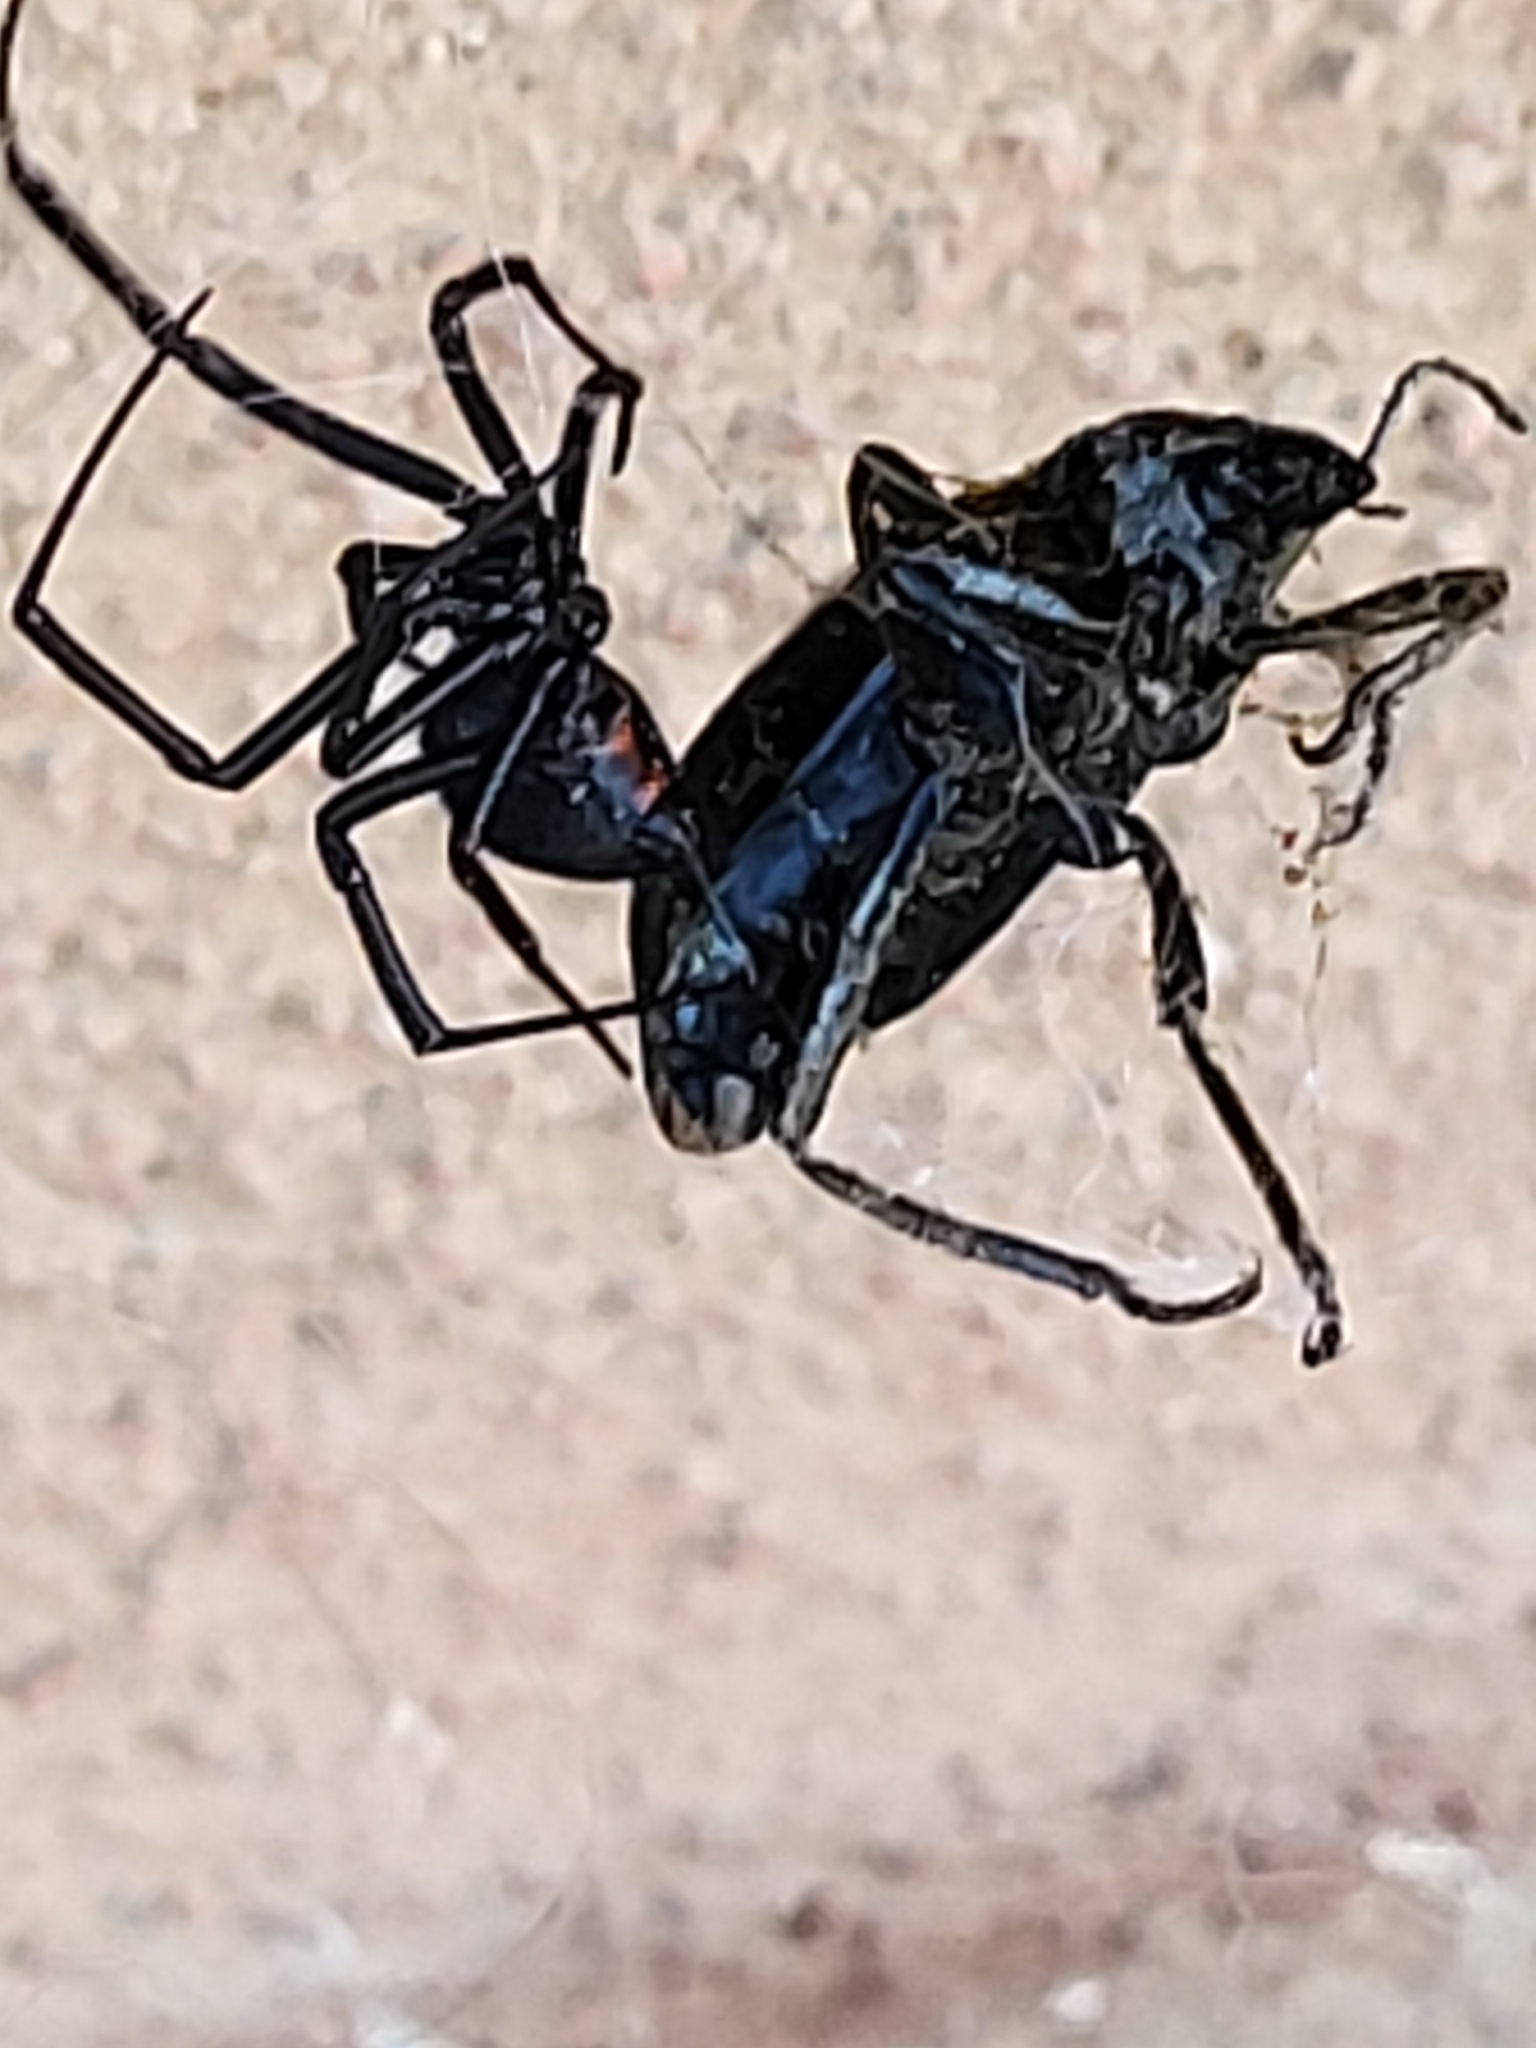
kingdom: Animalia
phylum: Arthropoda
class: Arachnida
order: Araneae
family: Theridiidae
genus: Latrodectus
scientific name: Latrodectus hesperus
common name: Western black widow
